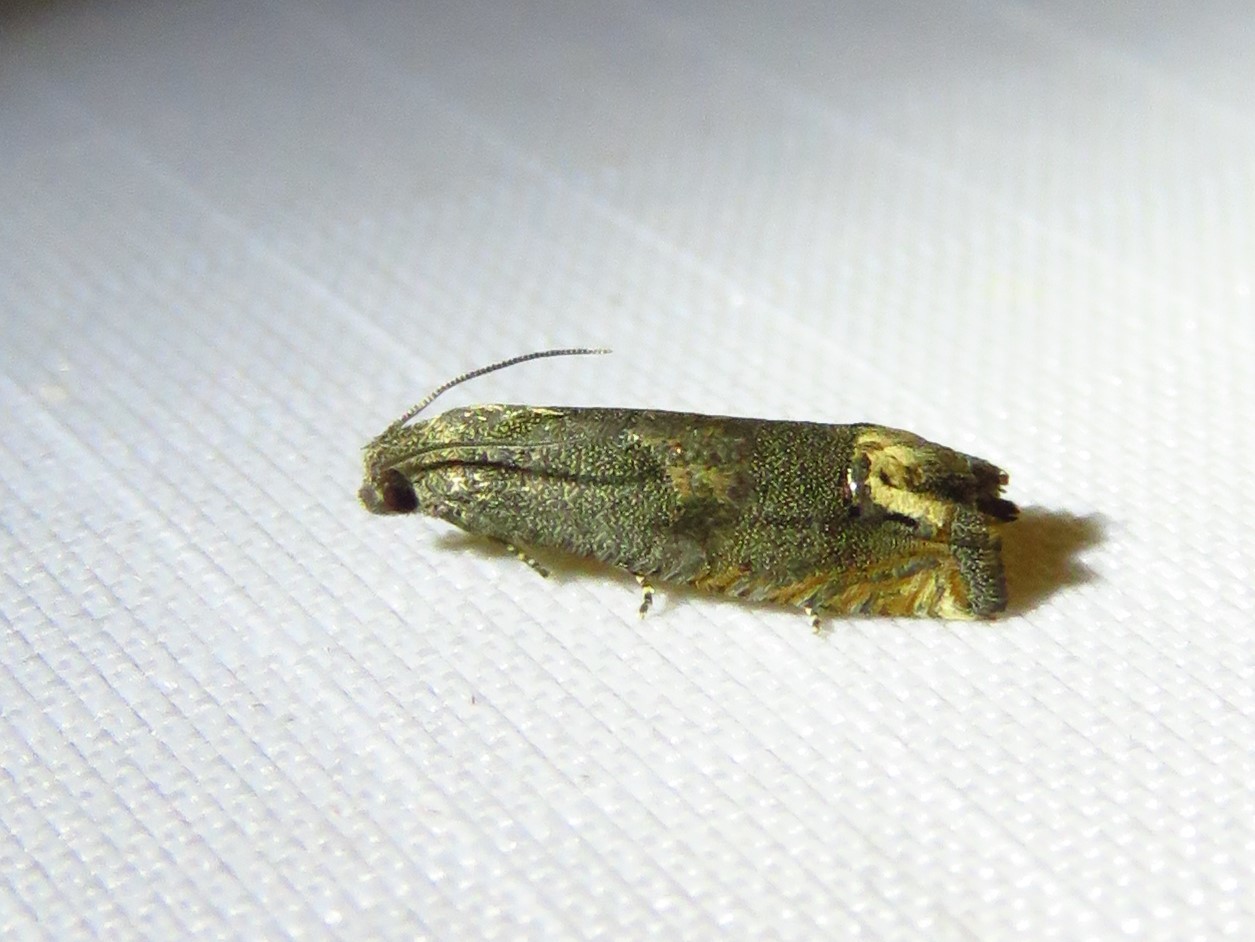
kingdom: Animalia
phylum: Arthropoda
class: Insecta
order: Lepidoptera
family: Tortricidae
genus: Epiblema
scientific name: Epiblema strenuana
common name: Ragweed borer moth
